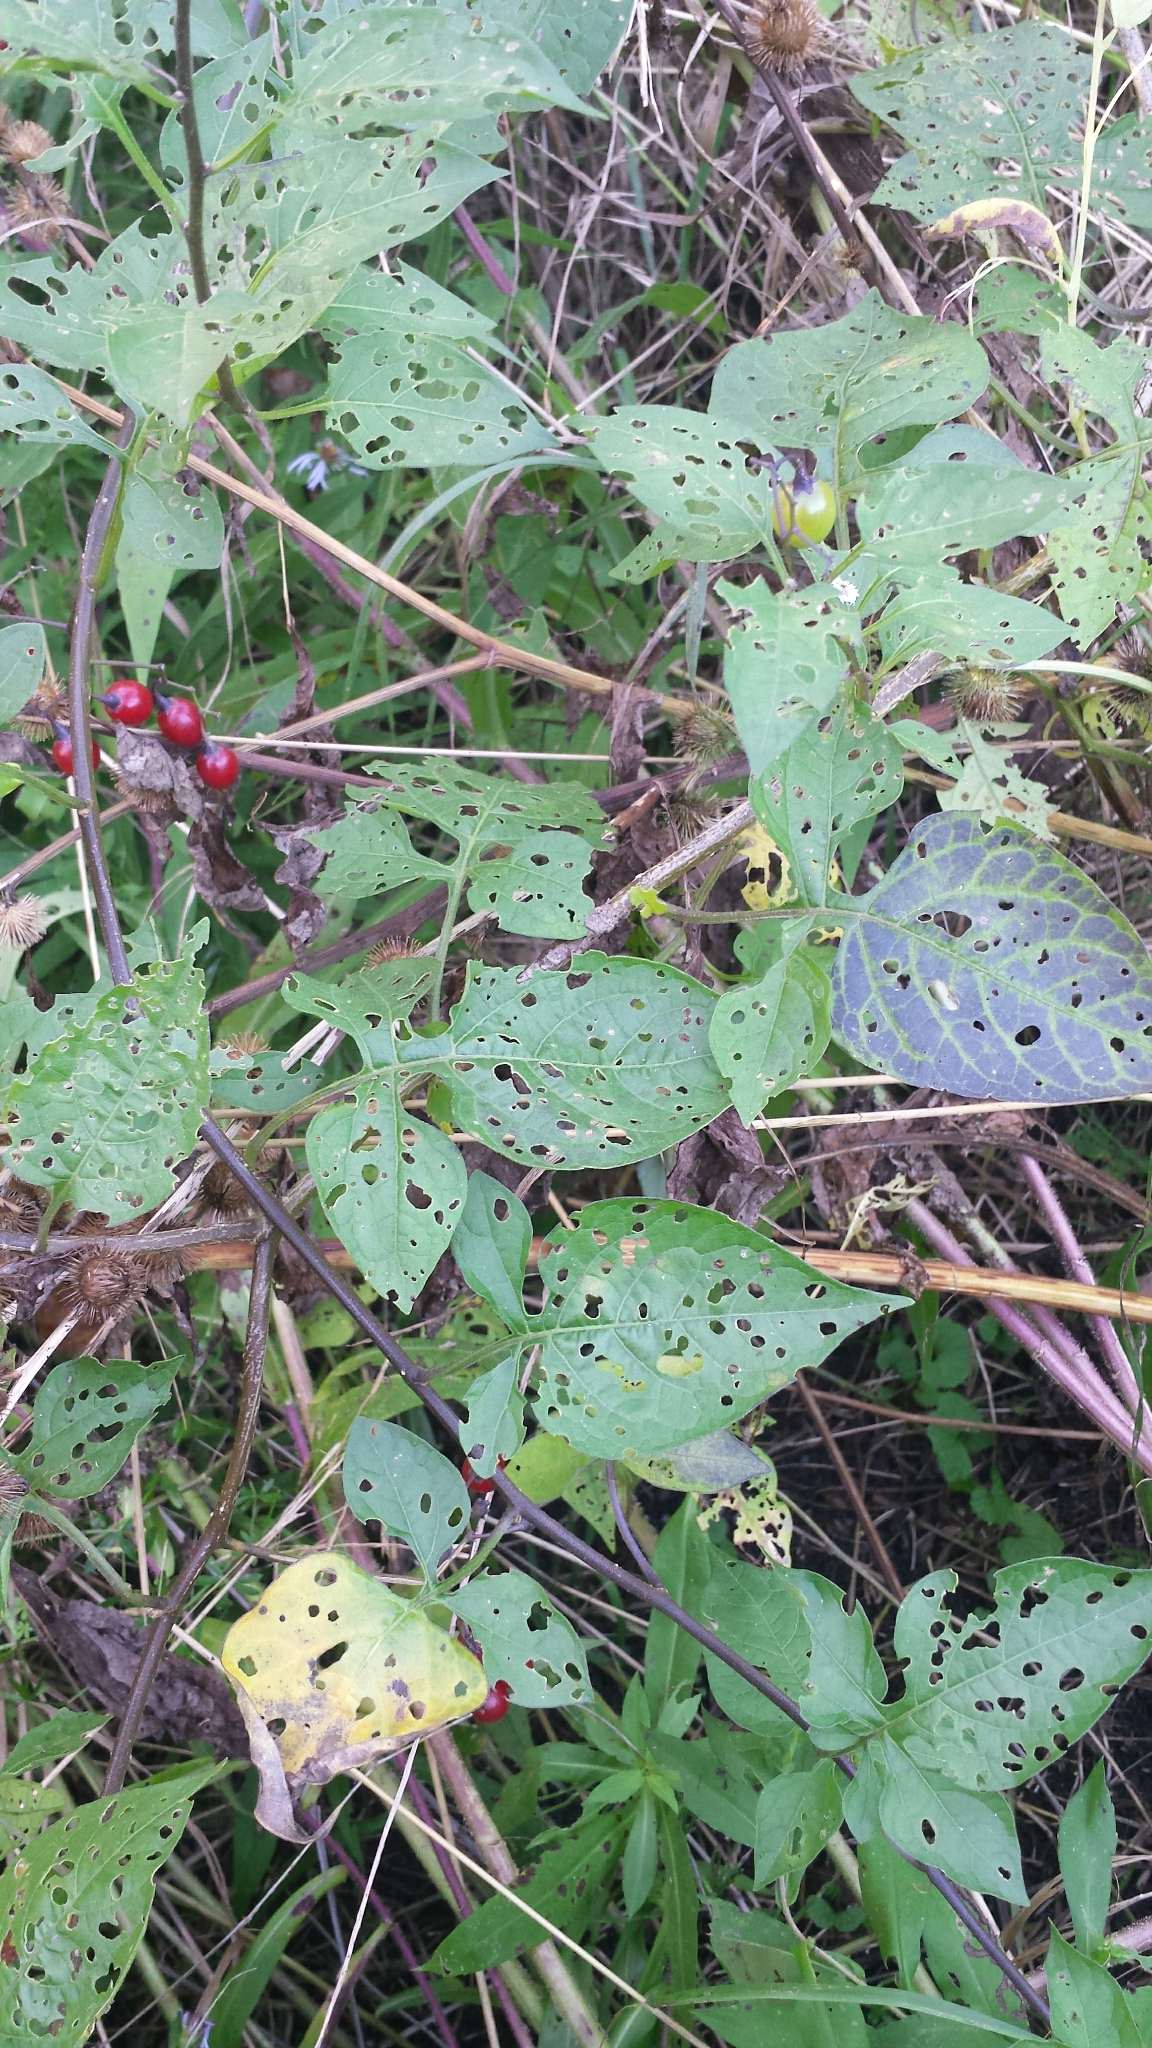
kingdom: Plantae
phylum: Tracheophyta
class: Magnoliopsida
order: Solanales
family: Solanaceae
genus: Solanum
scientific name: Solanum dulcamara
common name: Climbing nightshade
